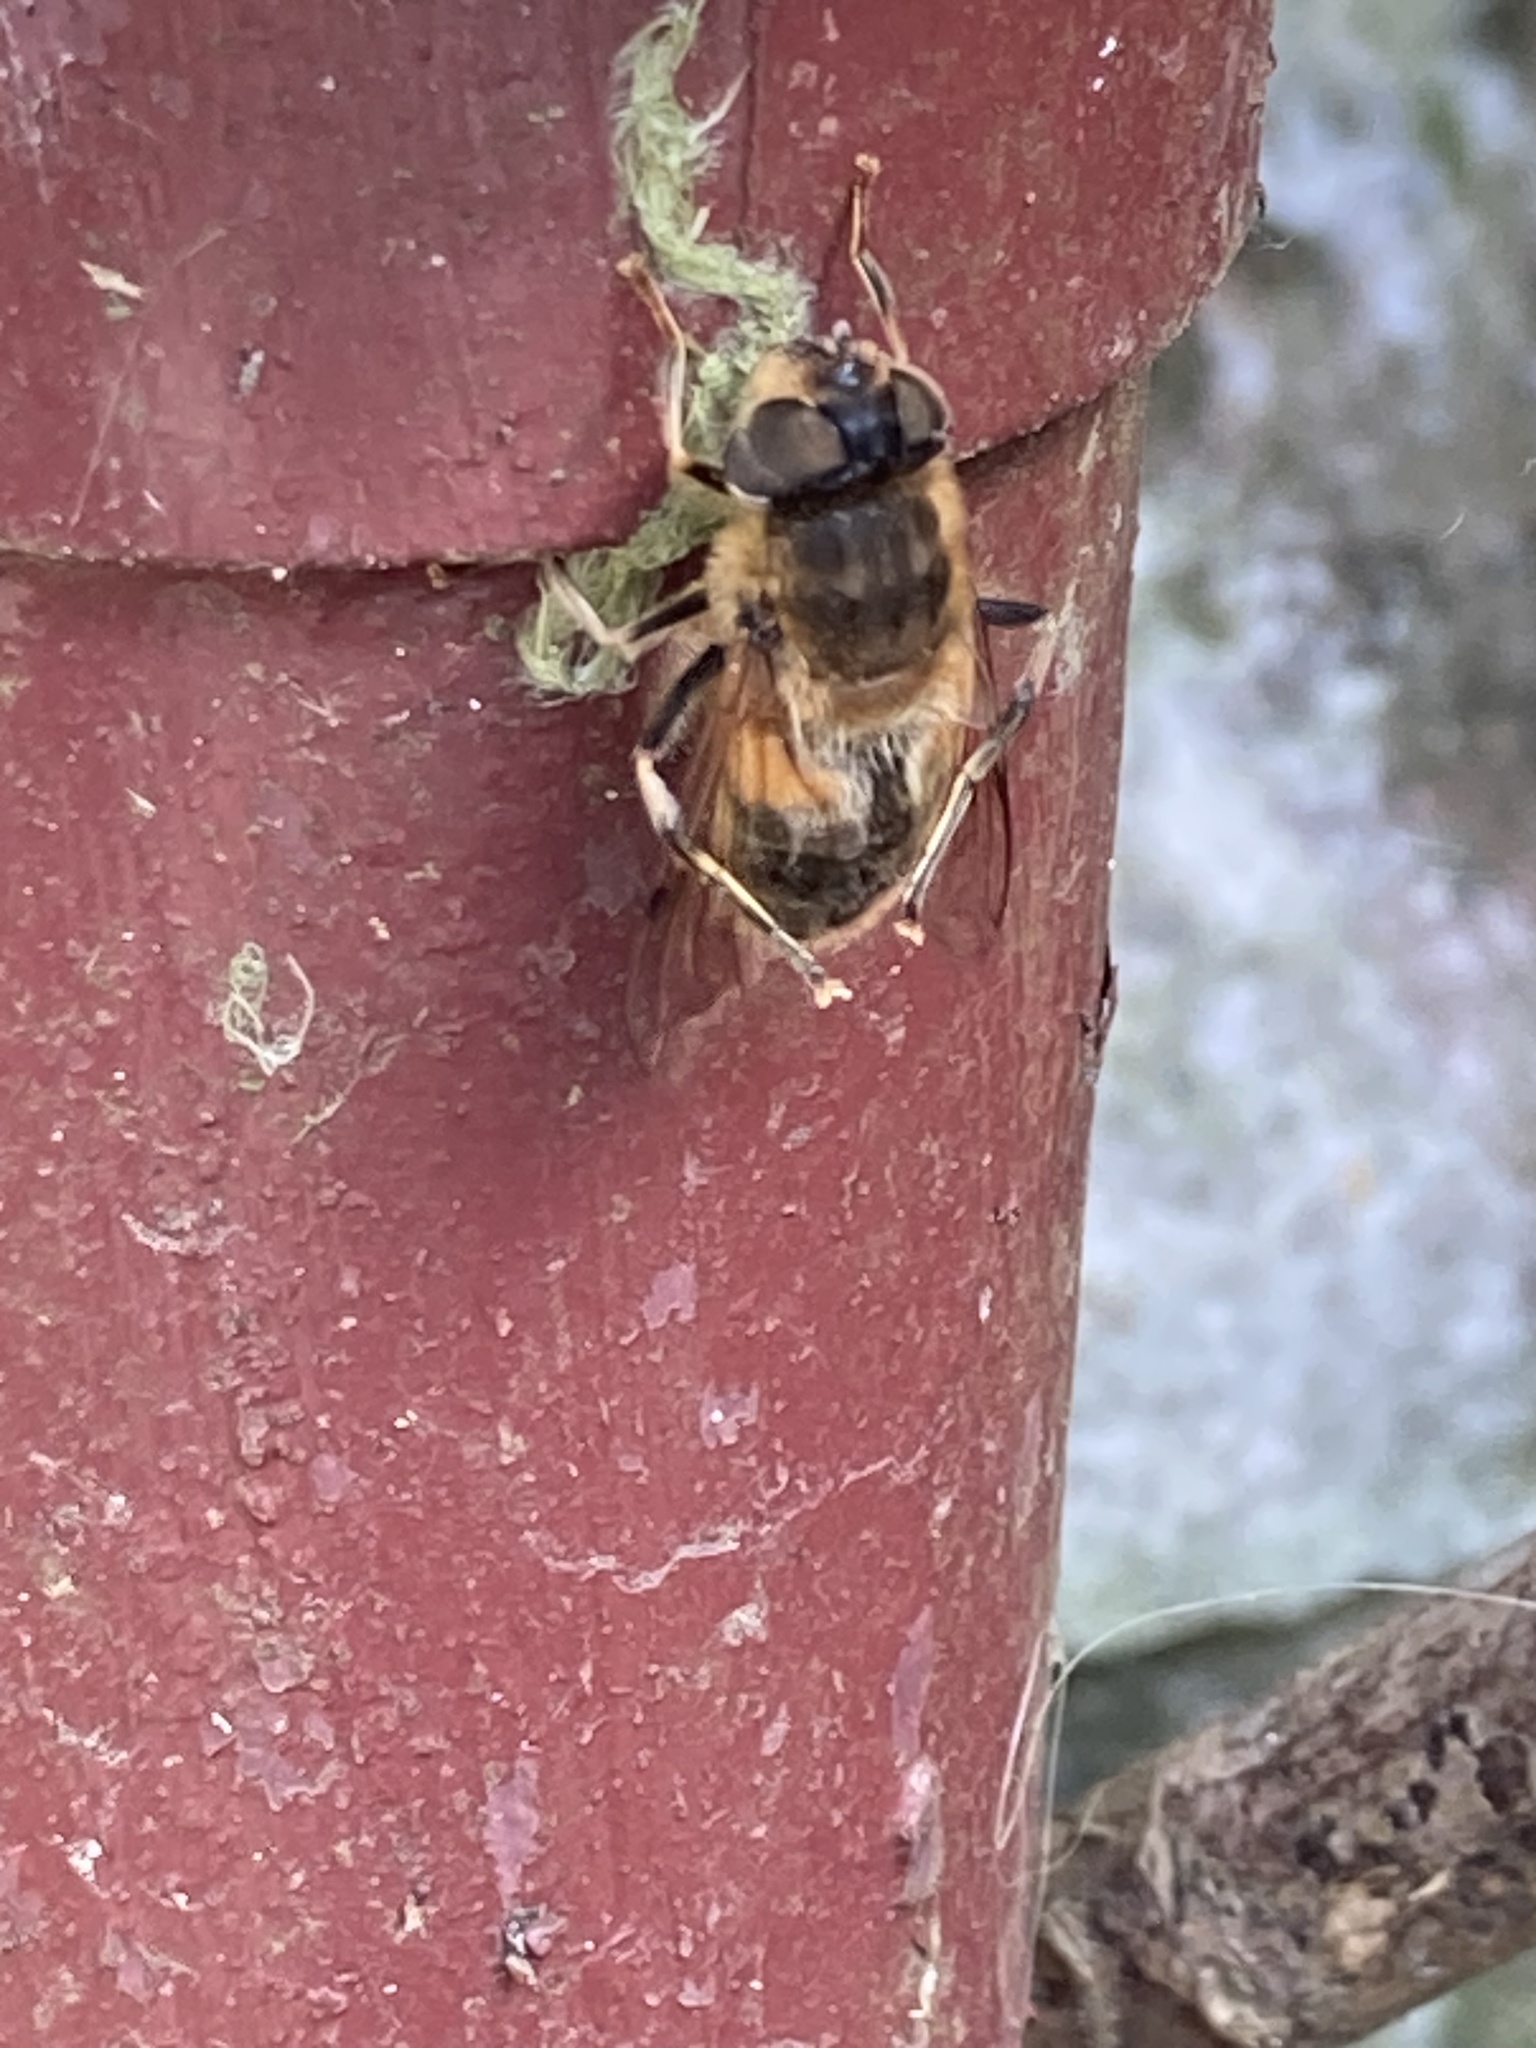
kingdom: Animalia
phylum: Arthropoda
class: Insecta
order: Diptera
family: Syrphidae
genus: Eristalis
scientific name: Eristalis pertinax
